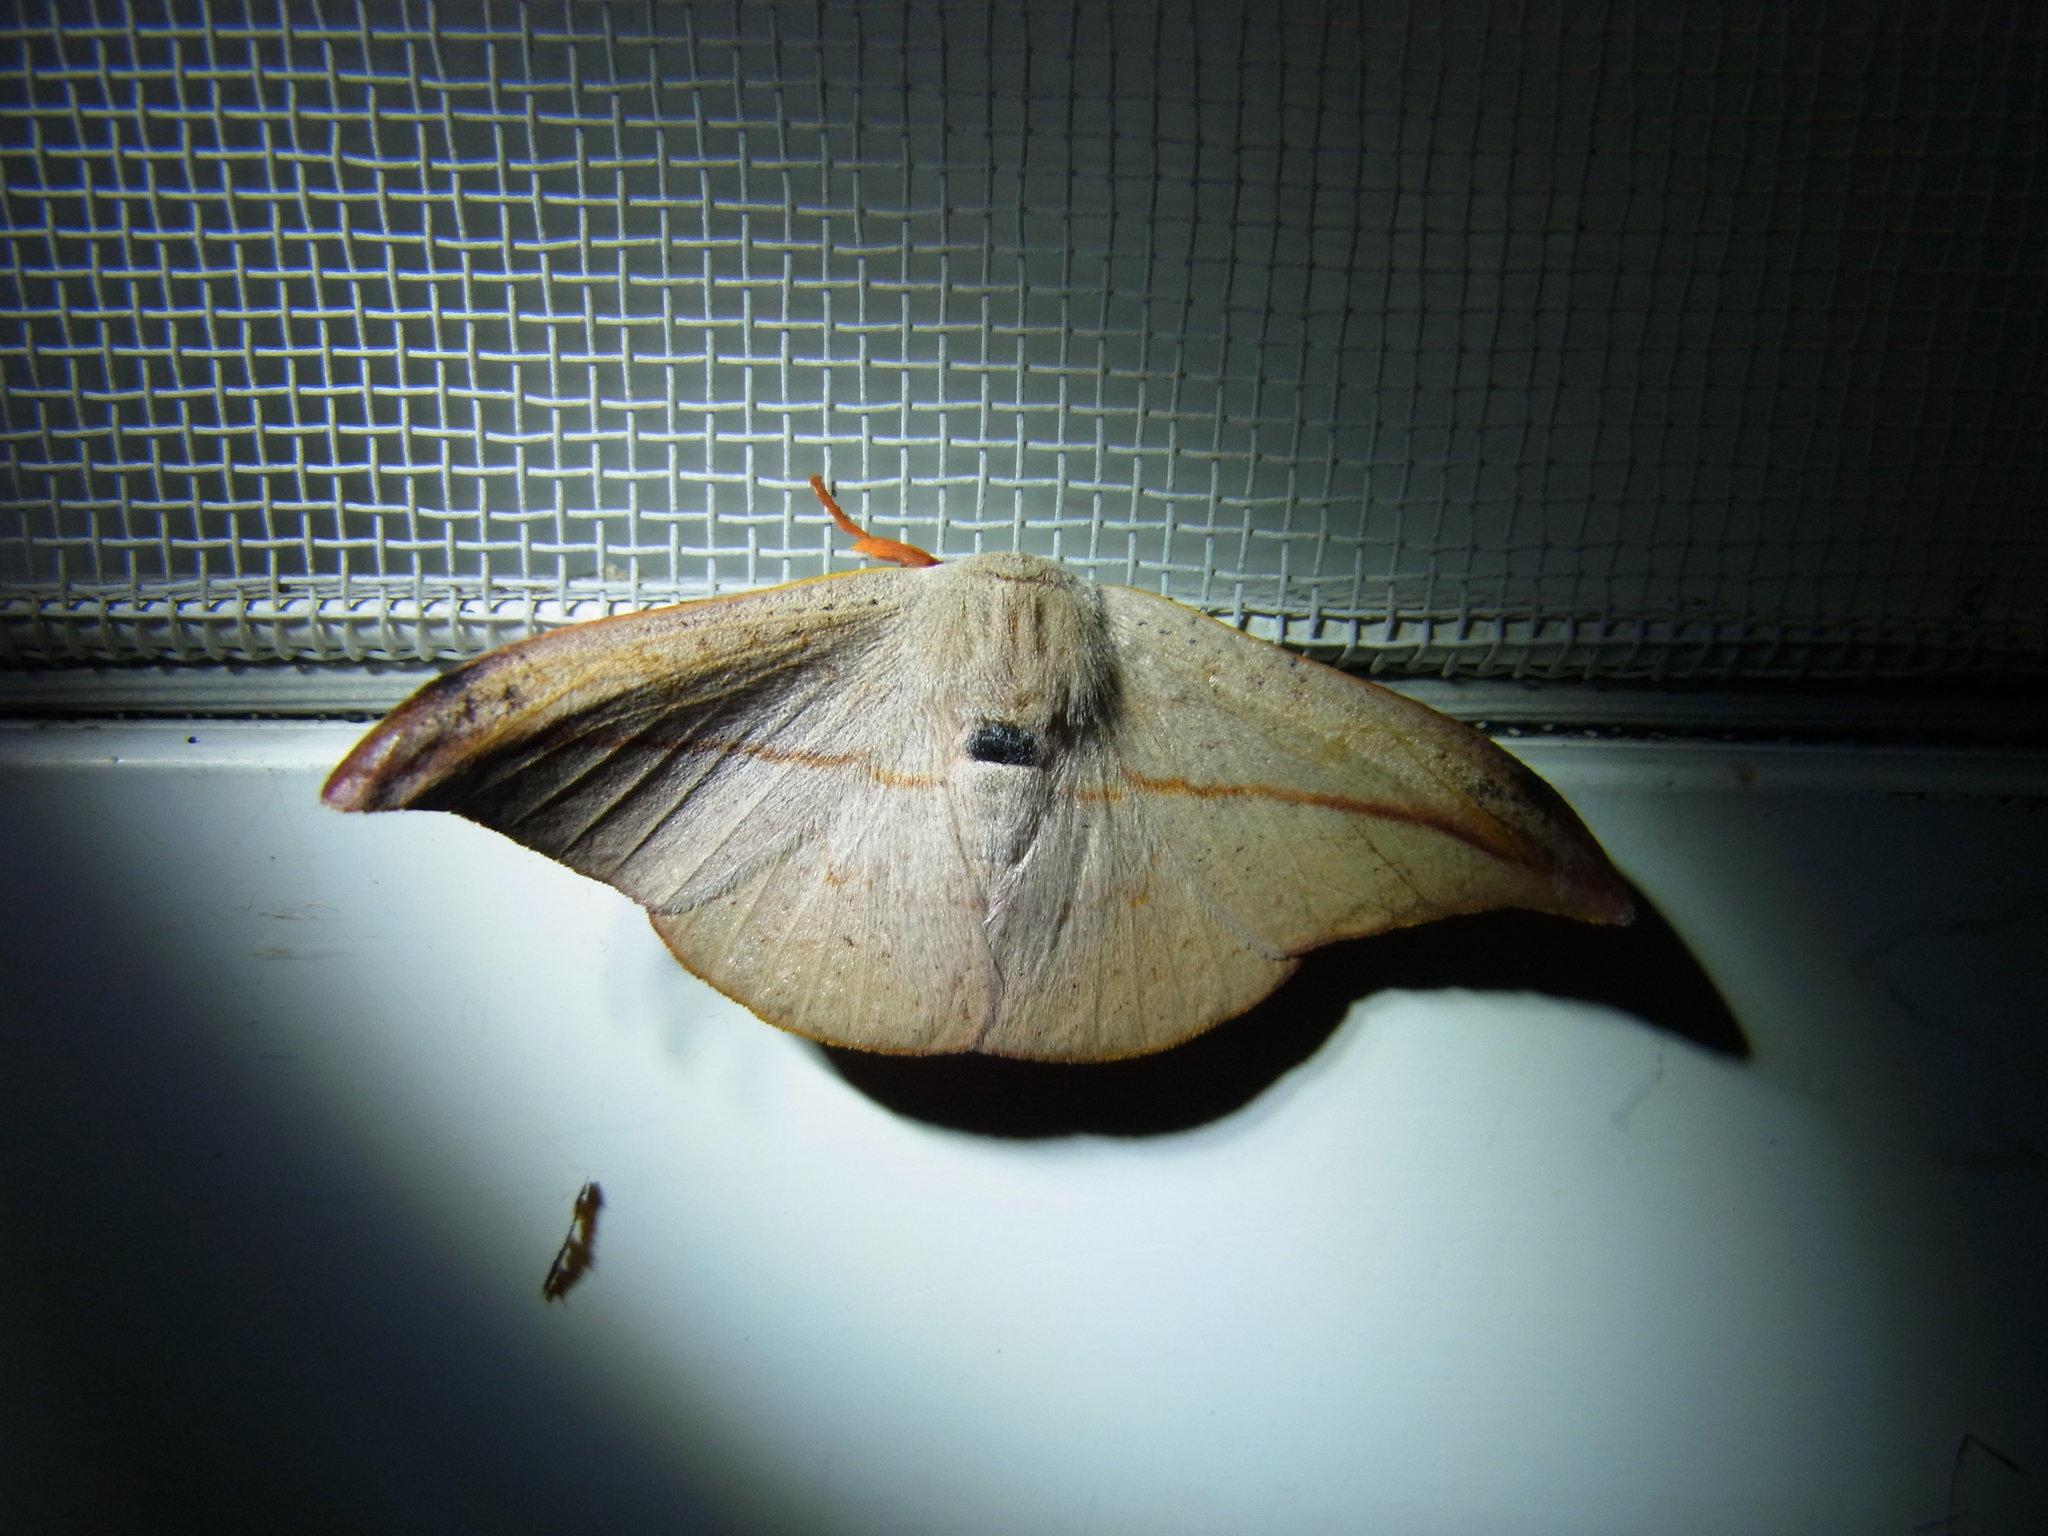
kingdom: Animalia
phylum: Arthropoda
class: Insecta
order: Lepidoptera
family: Drepanidae
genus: Oreta
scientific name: Oreta insignis
